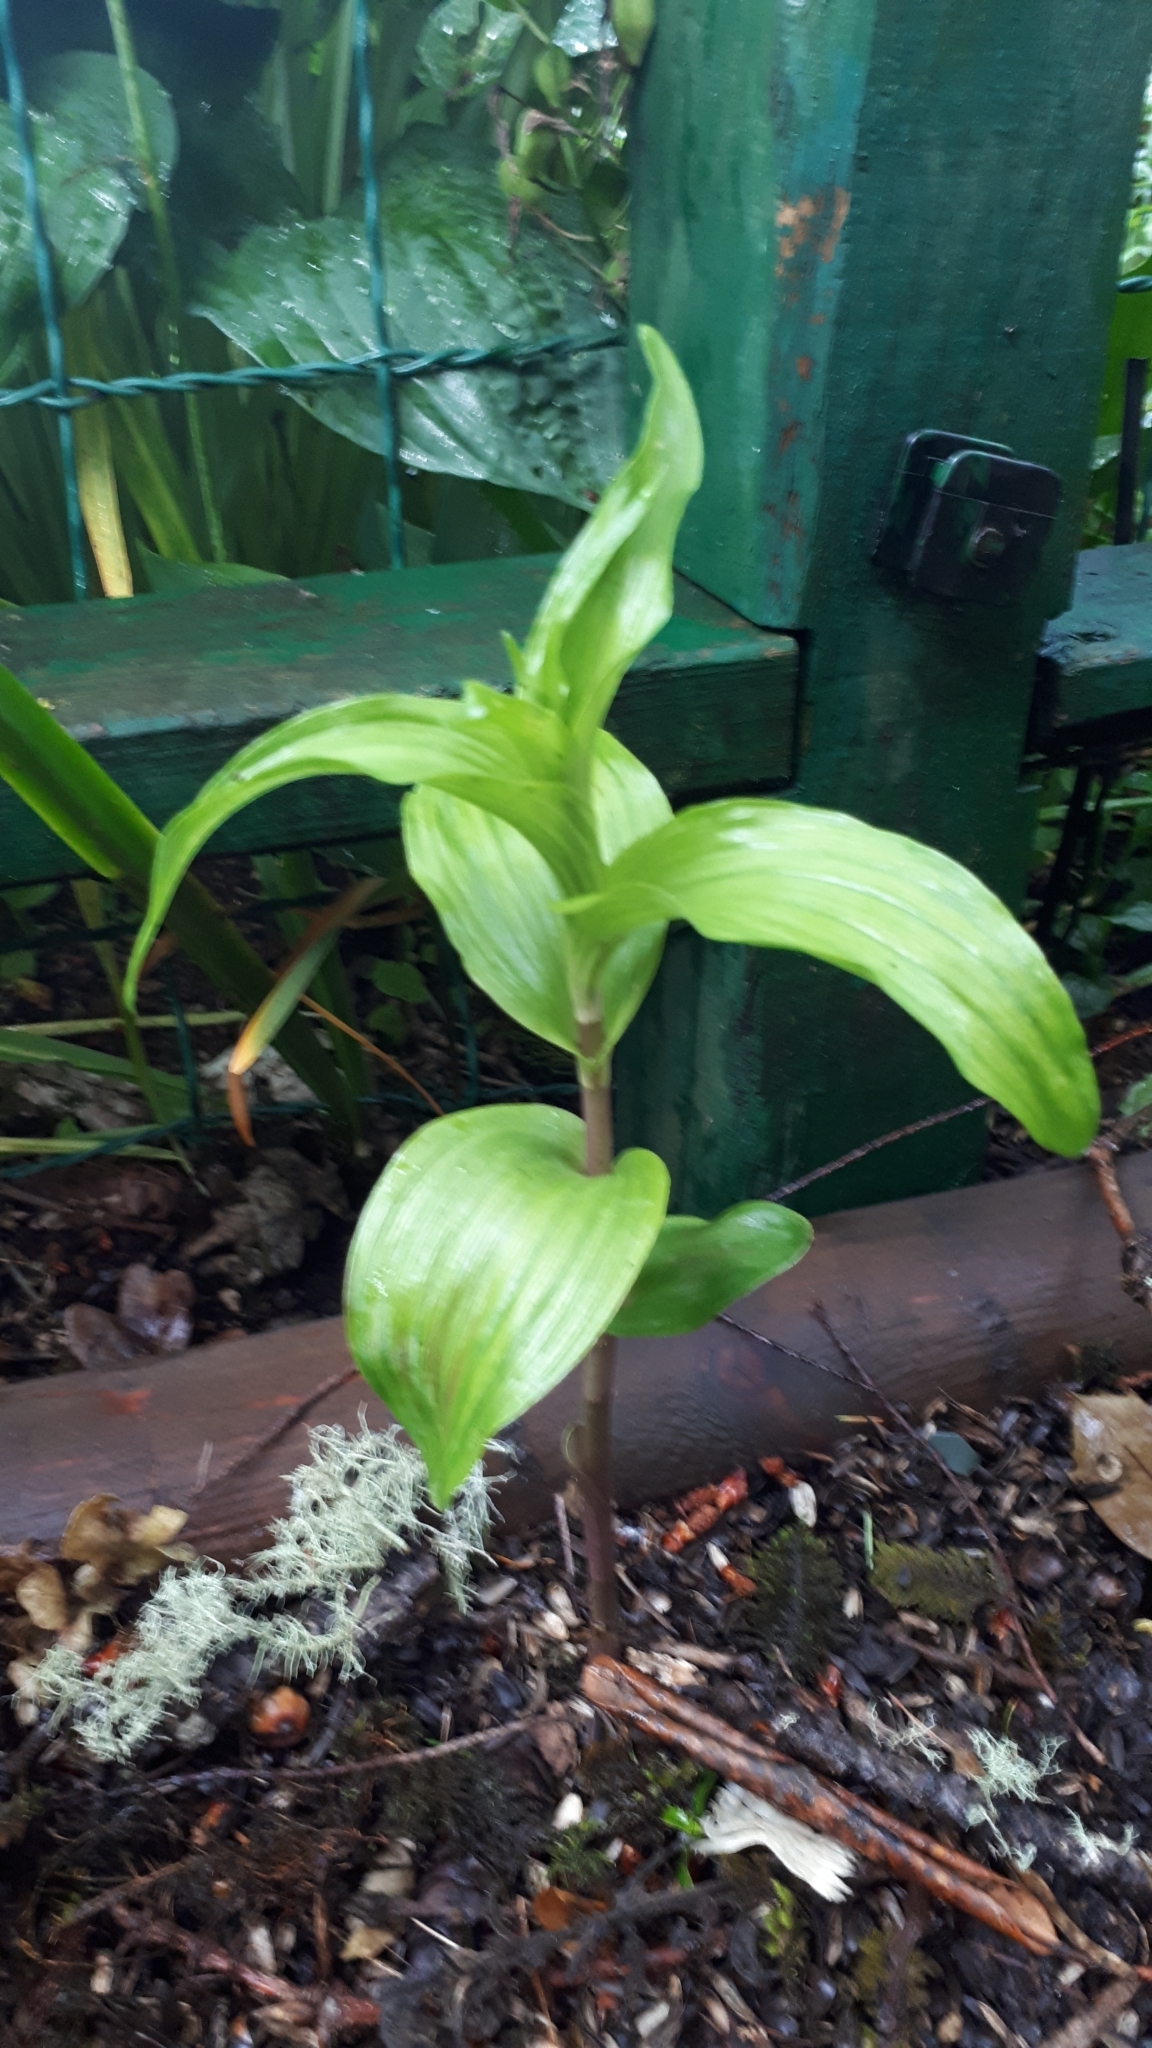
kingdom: Plantae
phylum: Tracheophyta
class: Liliopsida
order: Asparagales
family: Orchidaceae
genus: Epipactis
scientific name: Epipactis helleborine
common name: Broad-leaved helleborine
